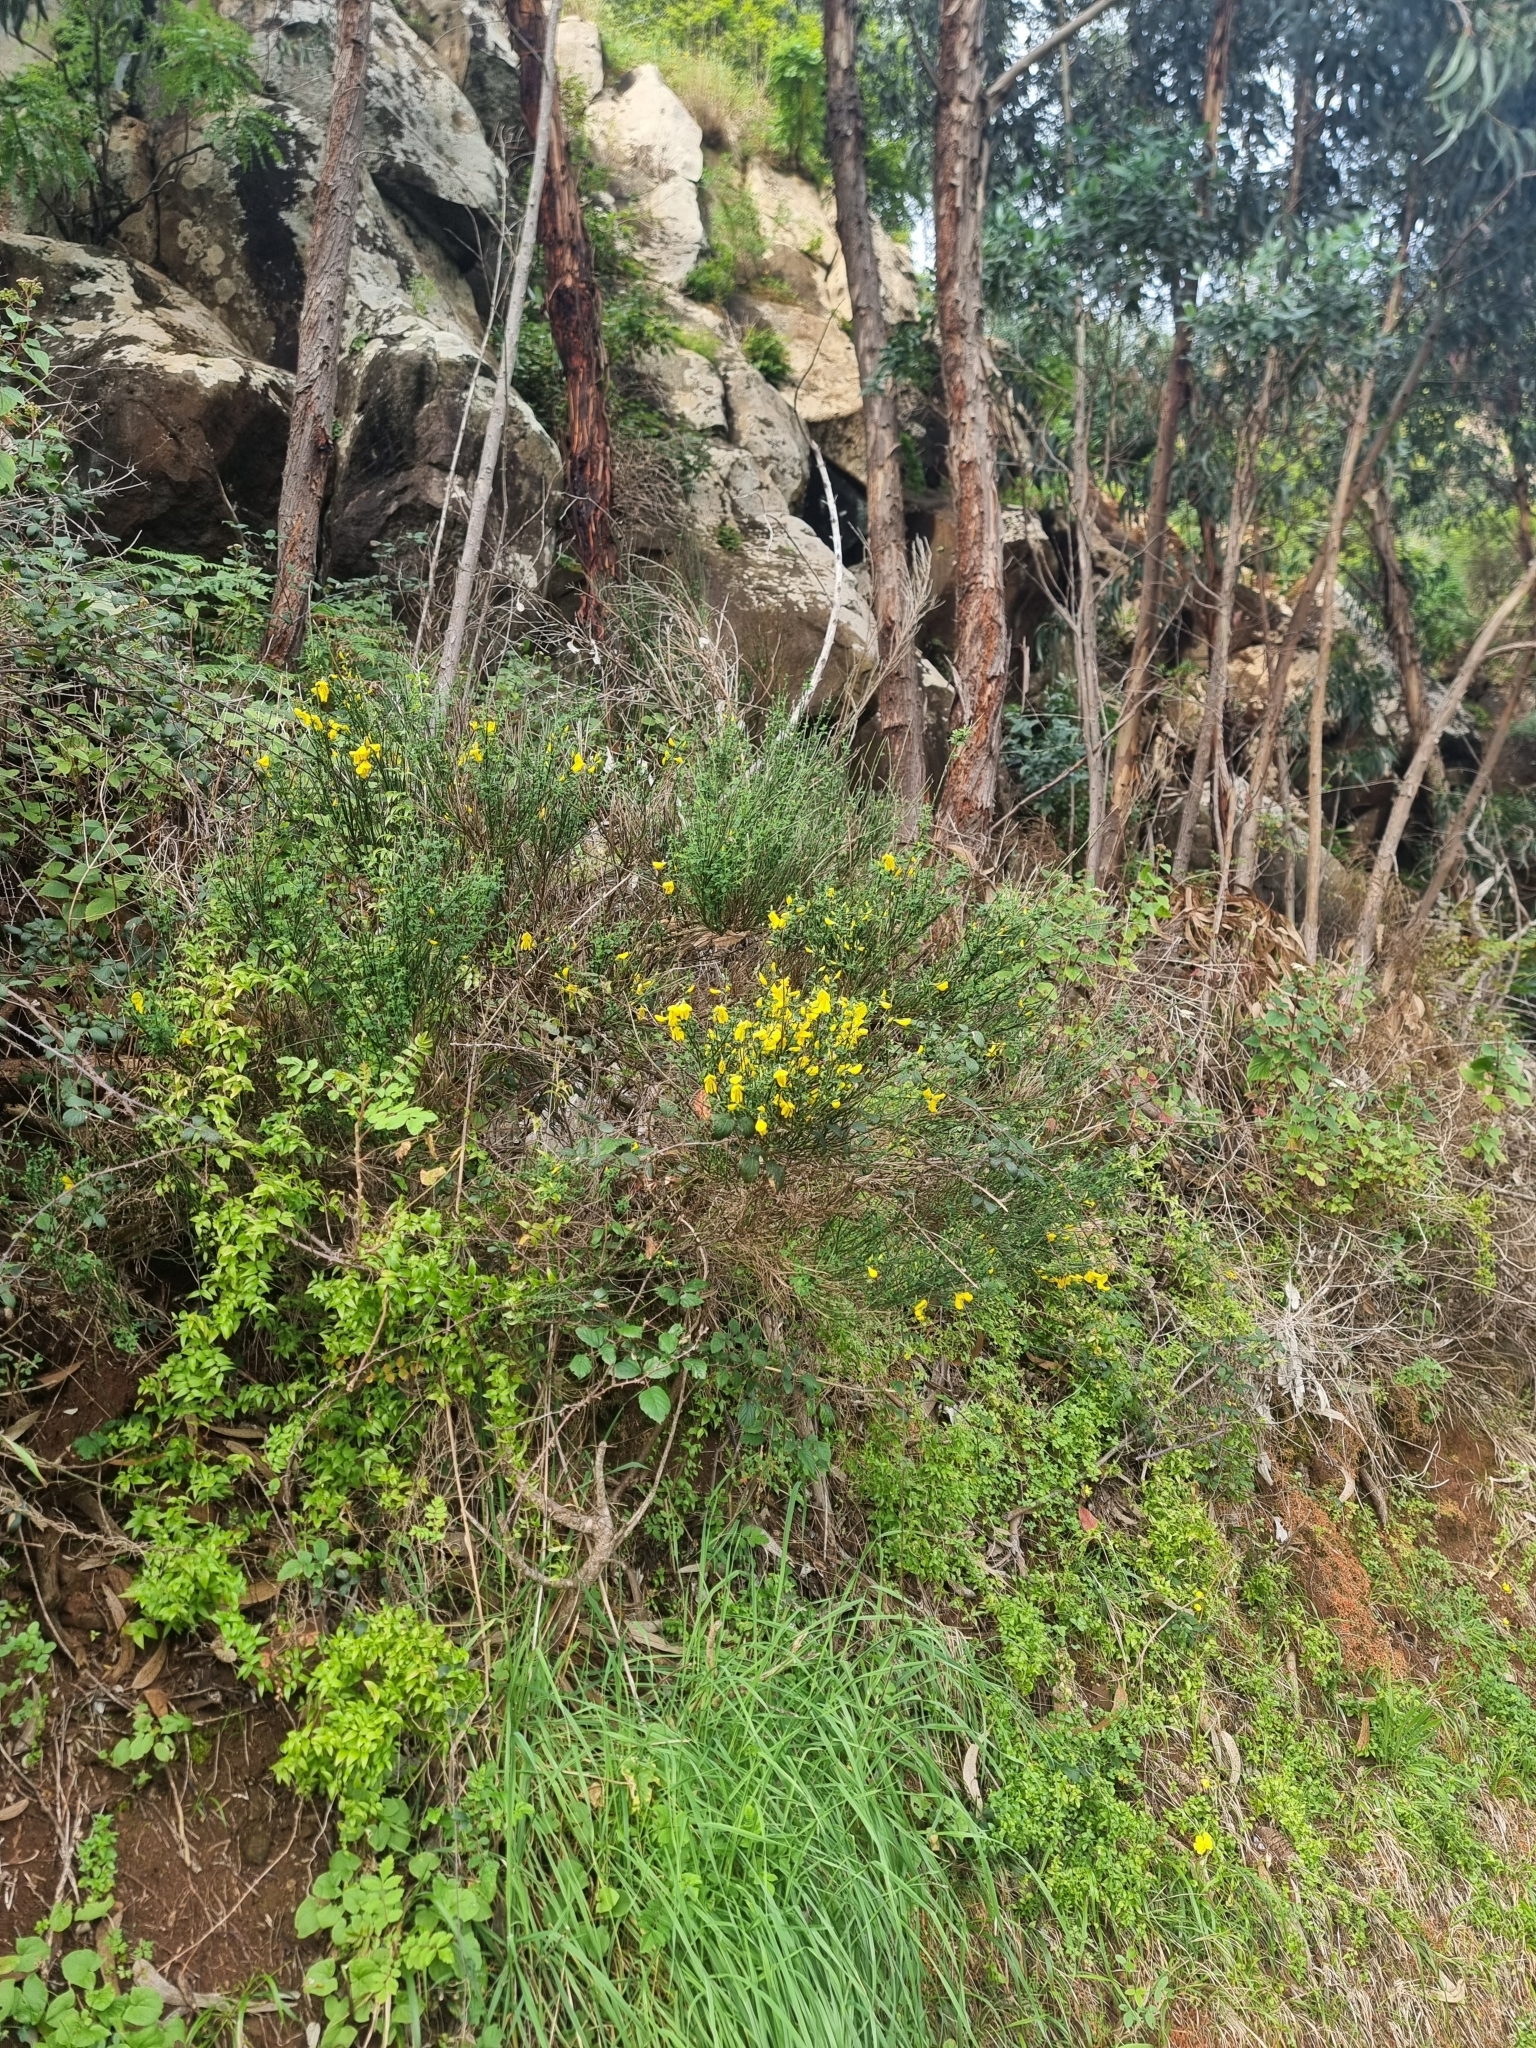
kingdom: Plantae
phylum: Tracheophyta
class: Magnoliopsida
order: Fabales
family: Fabaceae
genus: Cytisus
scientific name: Cytisus scoparius
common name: Scotch broom
